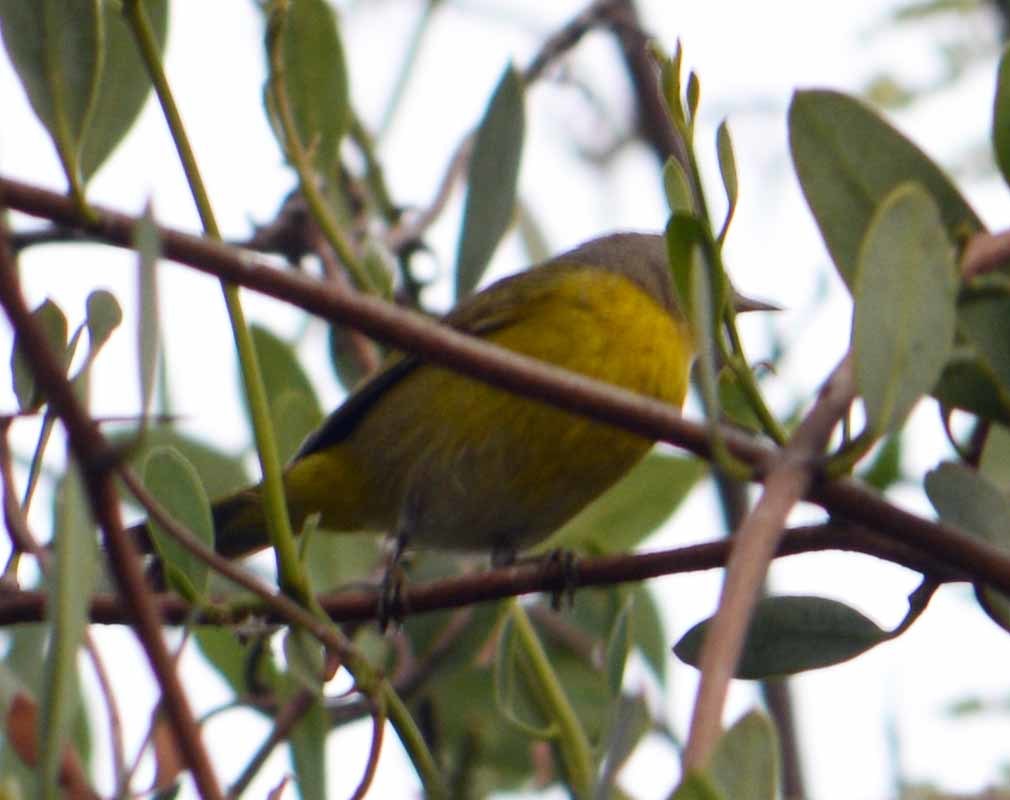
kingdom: Animalia
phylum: Chordata
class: Aves
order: Passeriformes
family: Parulidae
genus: Leiothlypis
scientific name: Leiothlypis ruficapilla
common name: Nashville warbler
